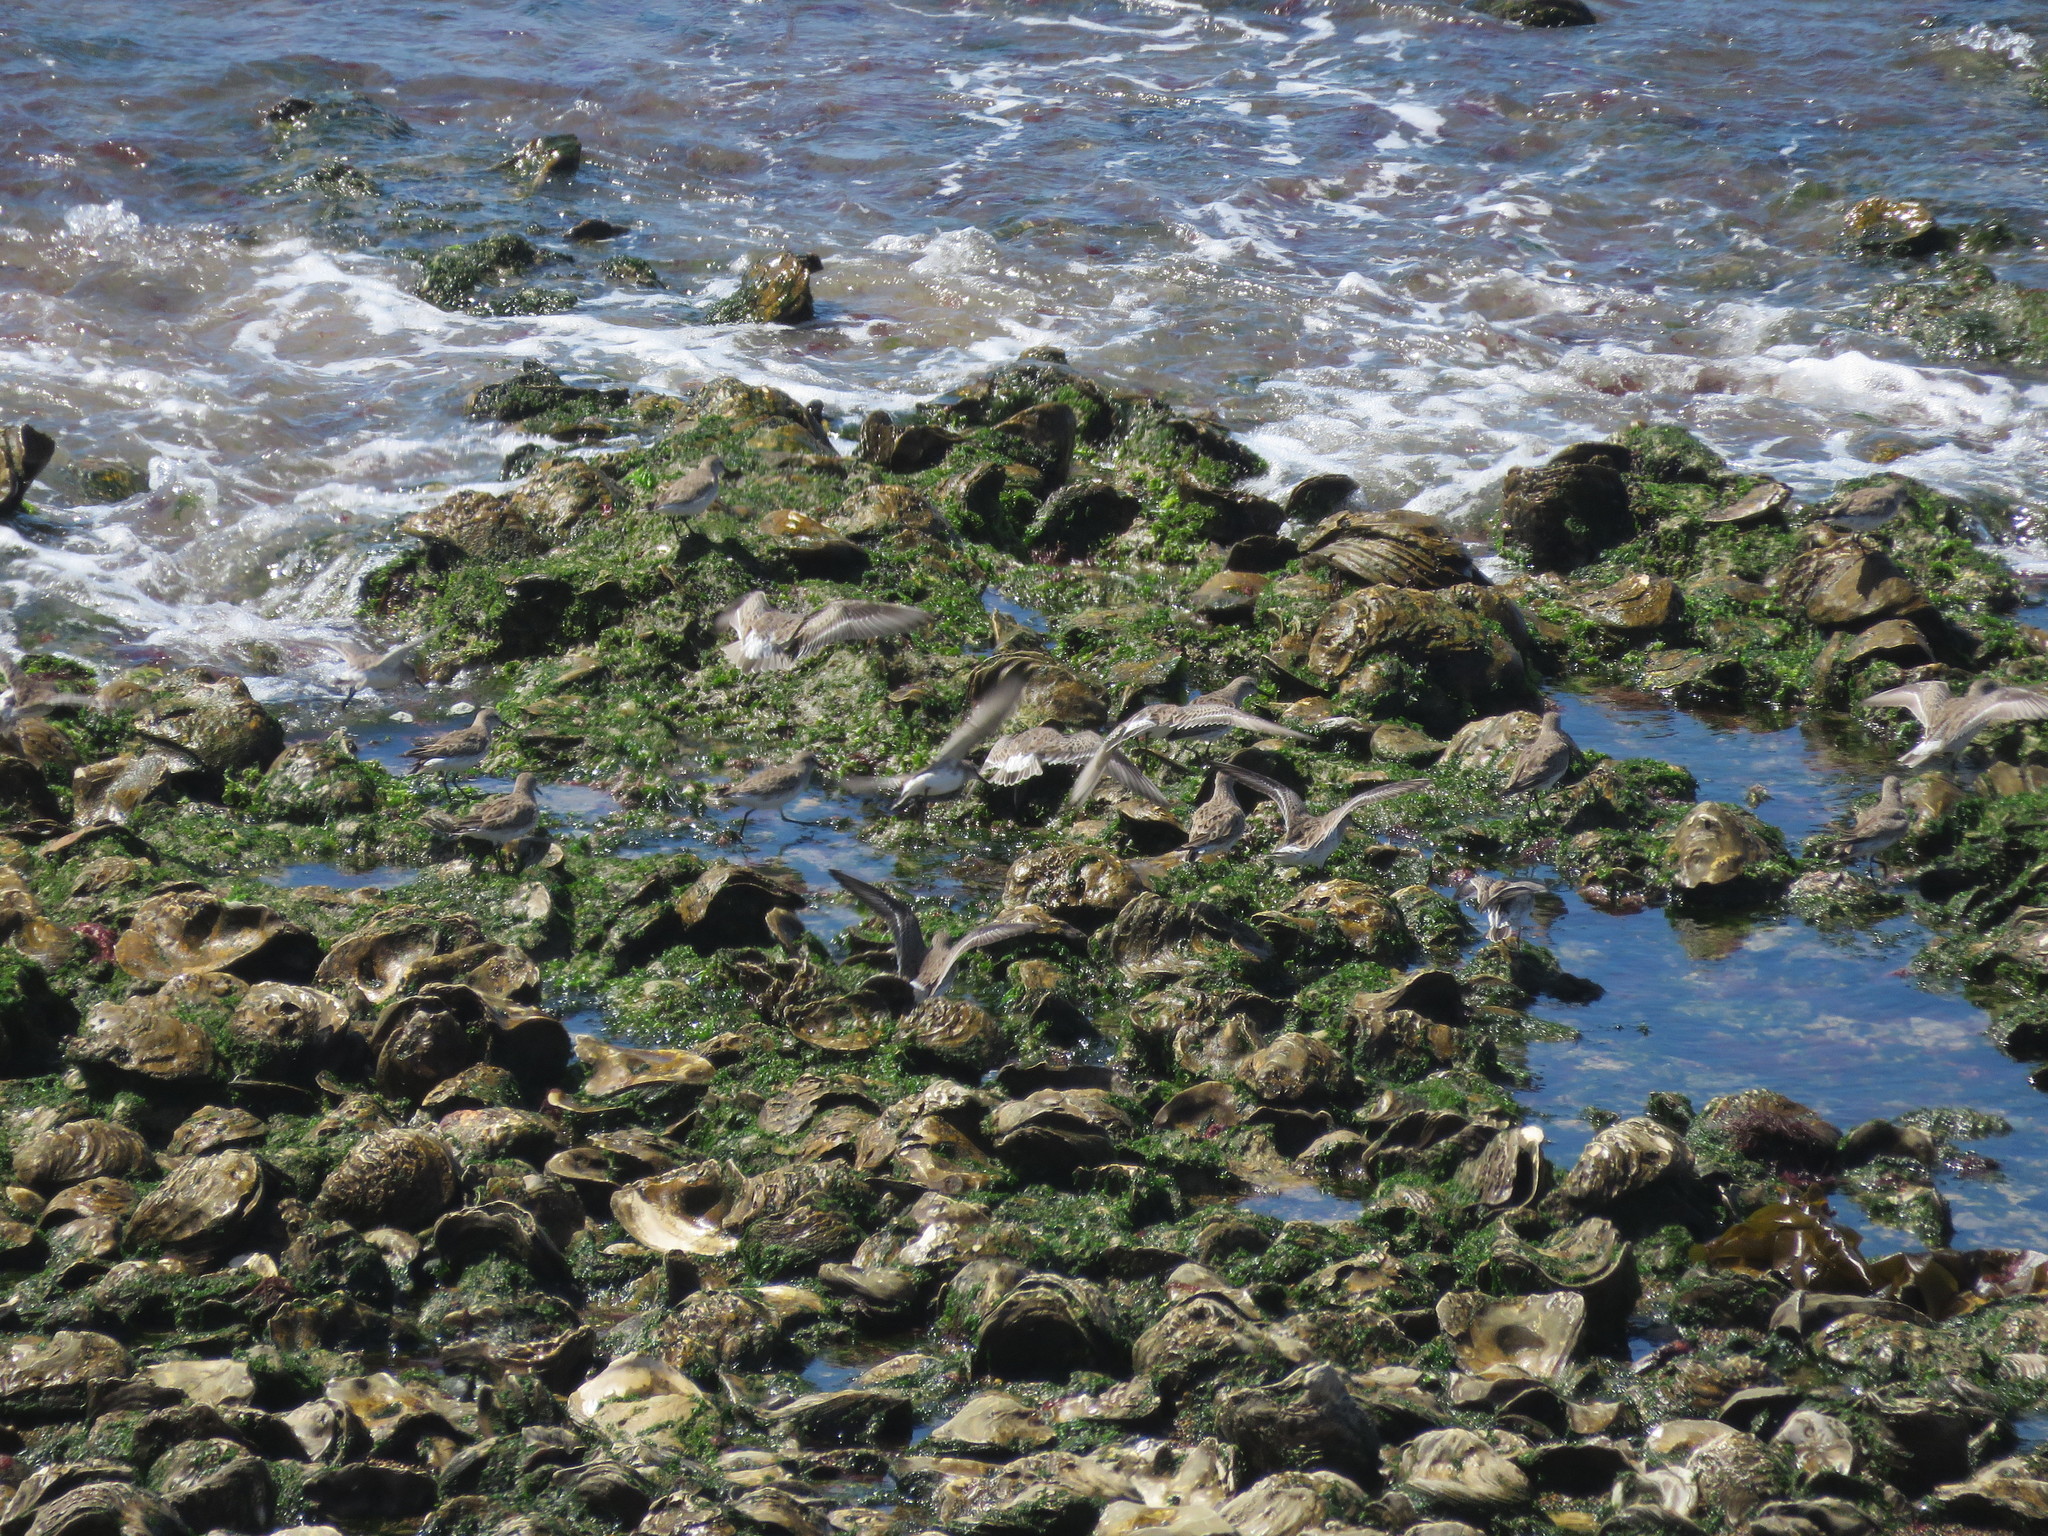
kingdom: Animalia
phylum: Chordata
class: Aves
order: Charadriiformes
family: Scolopacidae
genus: Calidris
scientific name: Calidris fuscicollis
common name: White-rumped sandpiper
